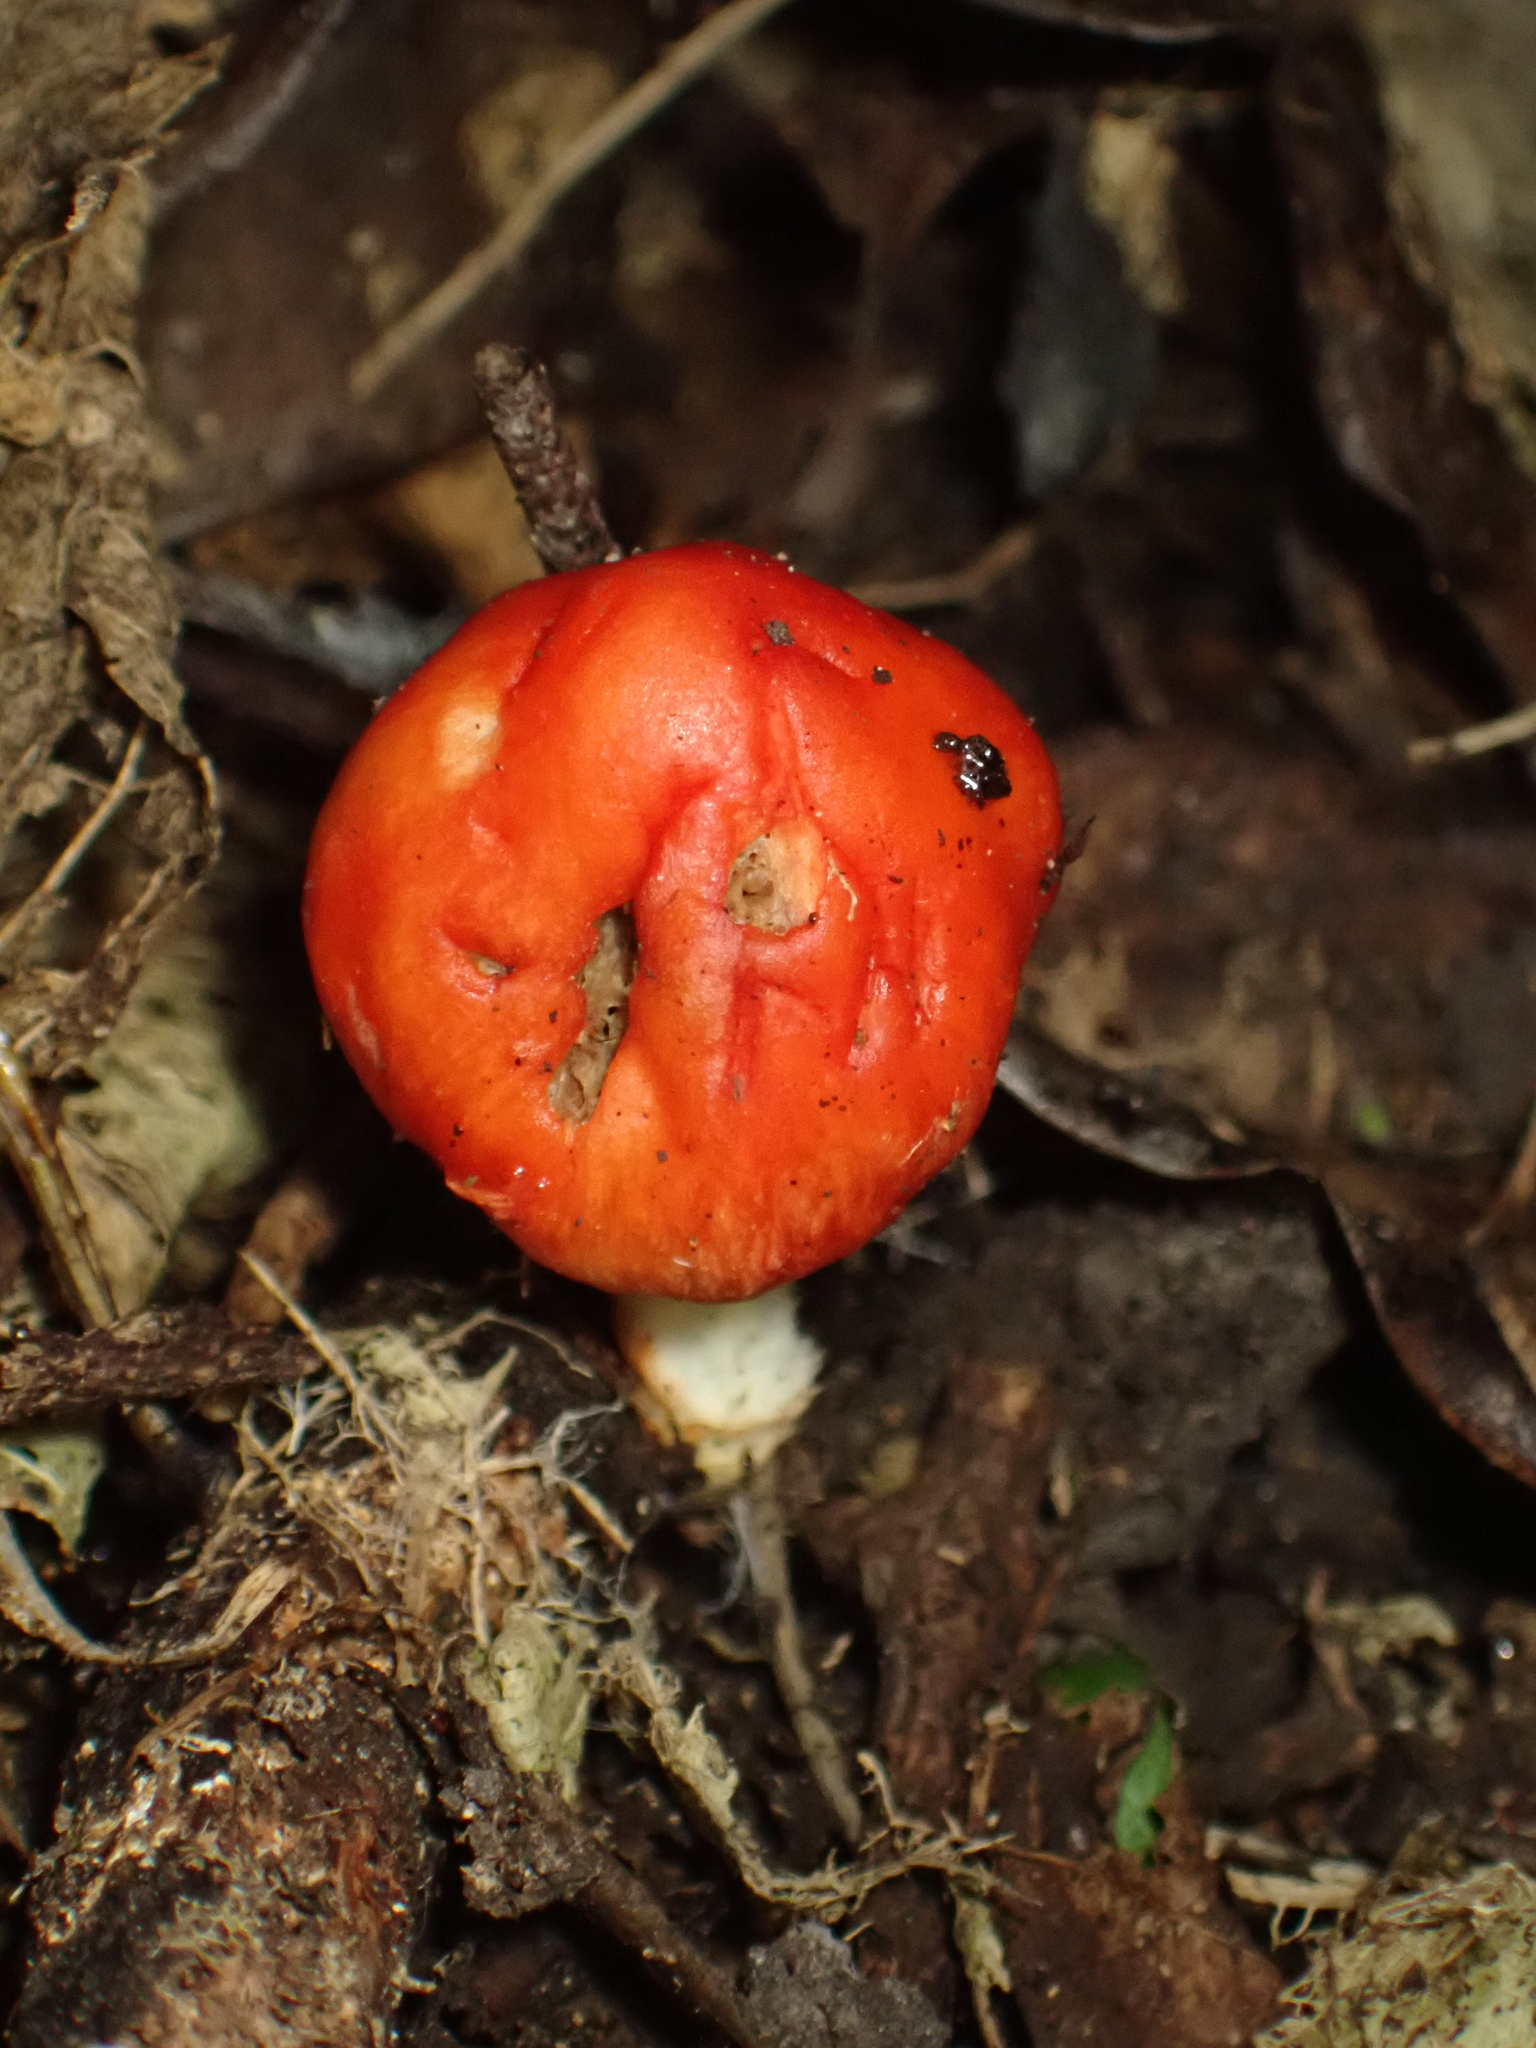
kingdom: Fungi
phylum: Basidiomycota
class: Agaricomycetes
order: Agaricales
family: Strophariaceae
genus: Leratiomyces
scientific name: Leratiomyces erythrocephalus
